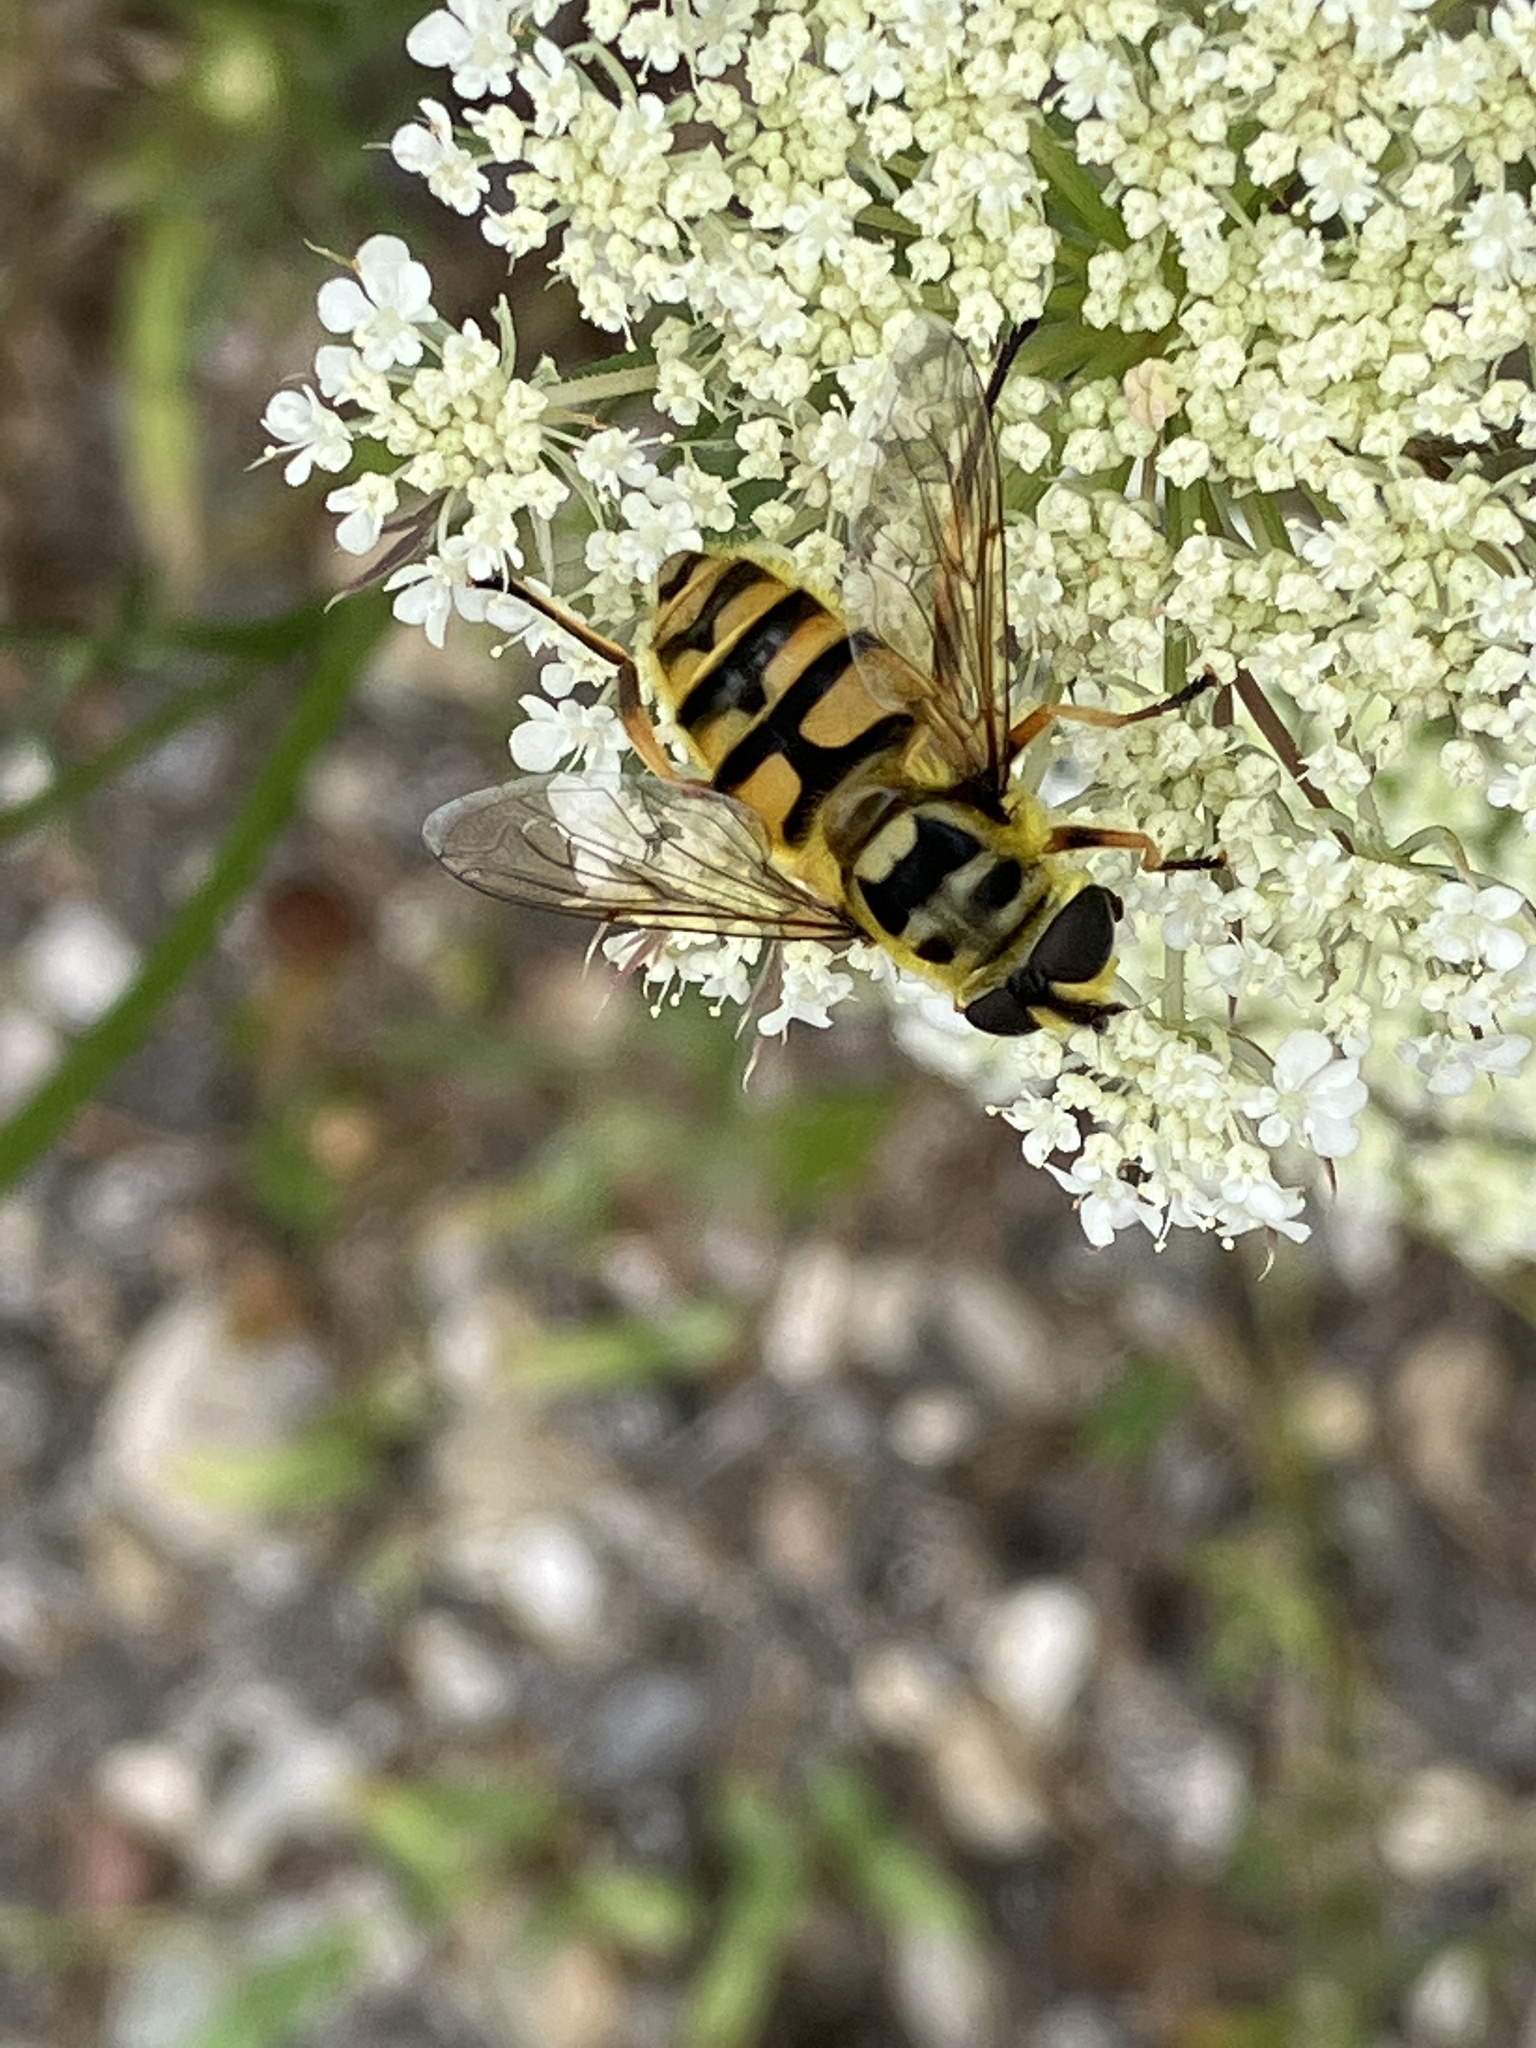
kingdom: Animalia
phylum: Arthropoda
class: Insecta
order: Diptera
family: Syrphidae
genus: Myathropa
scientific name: Myathropa florea
